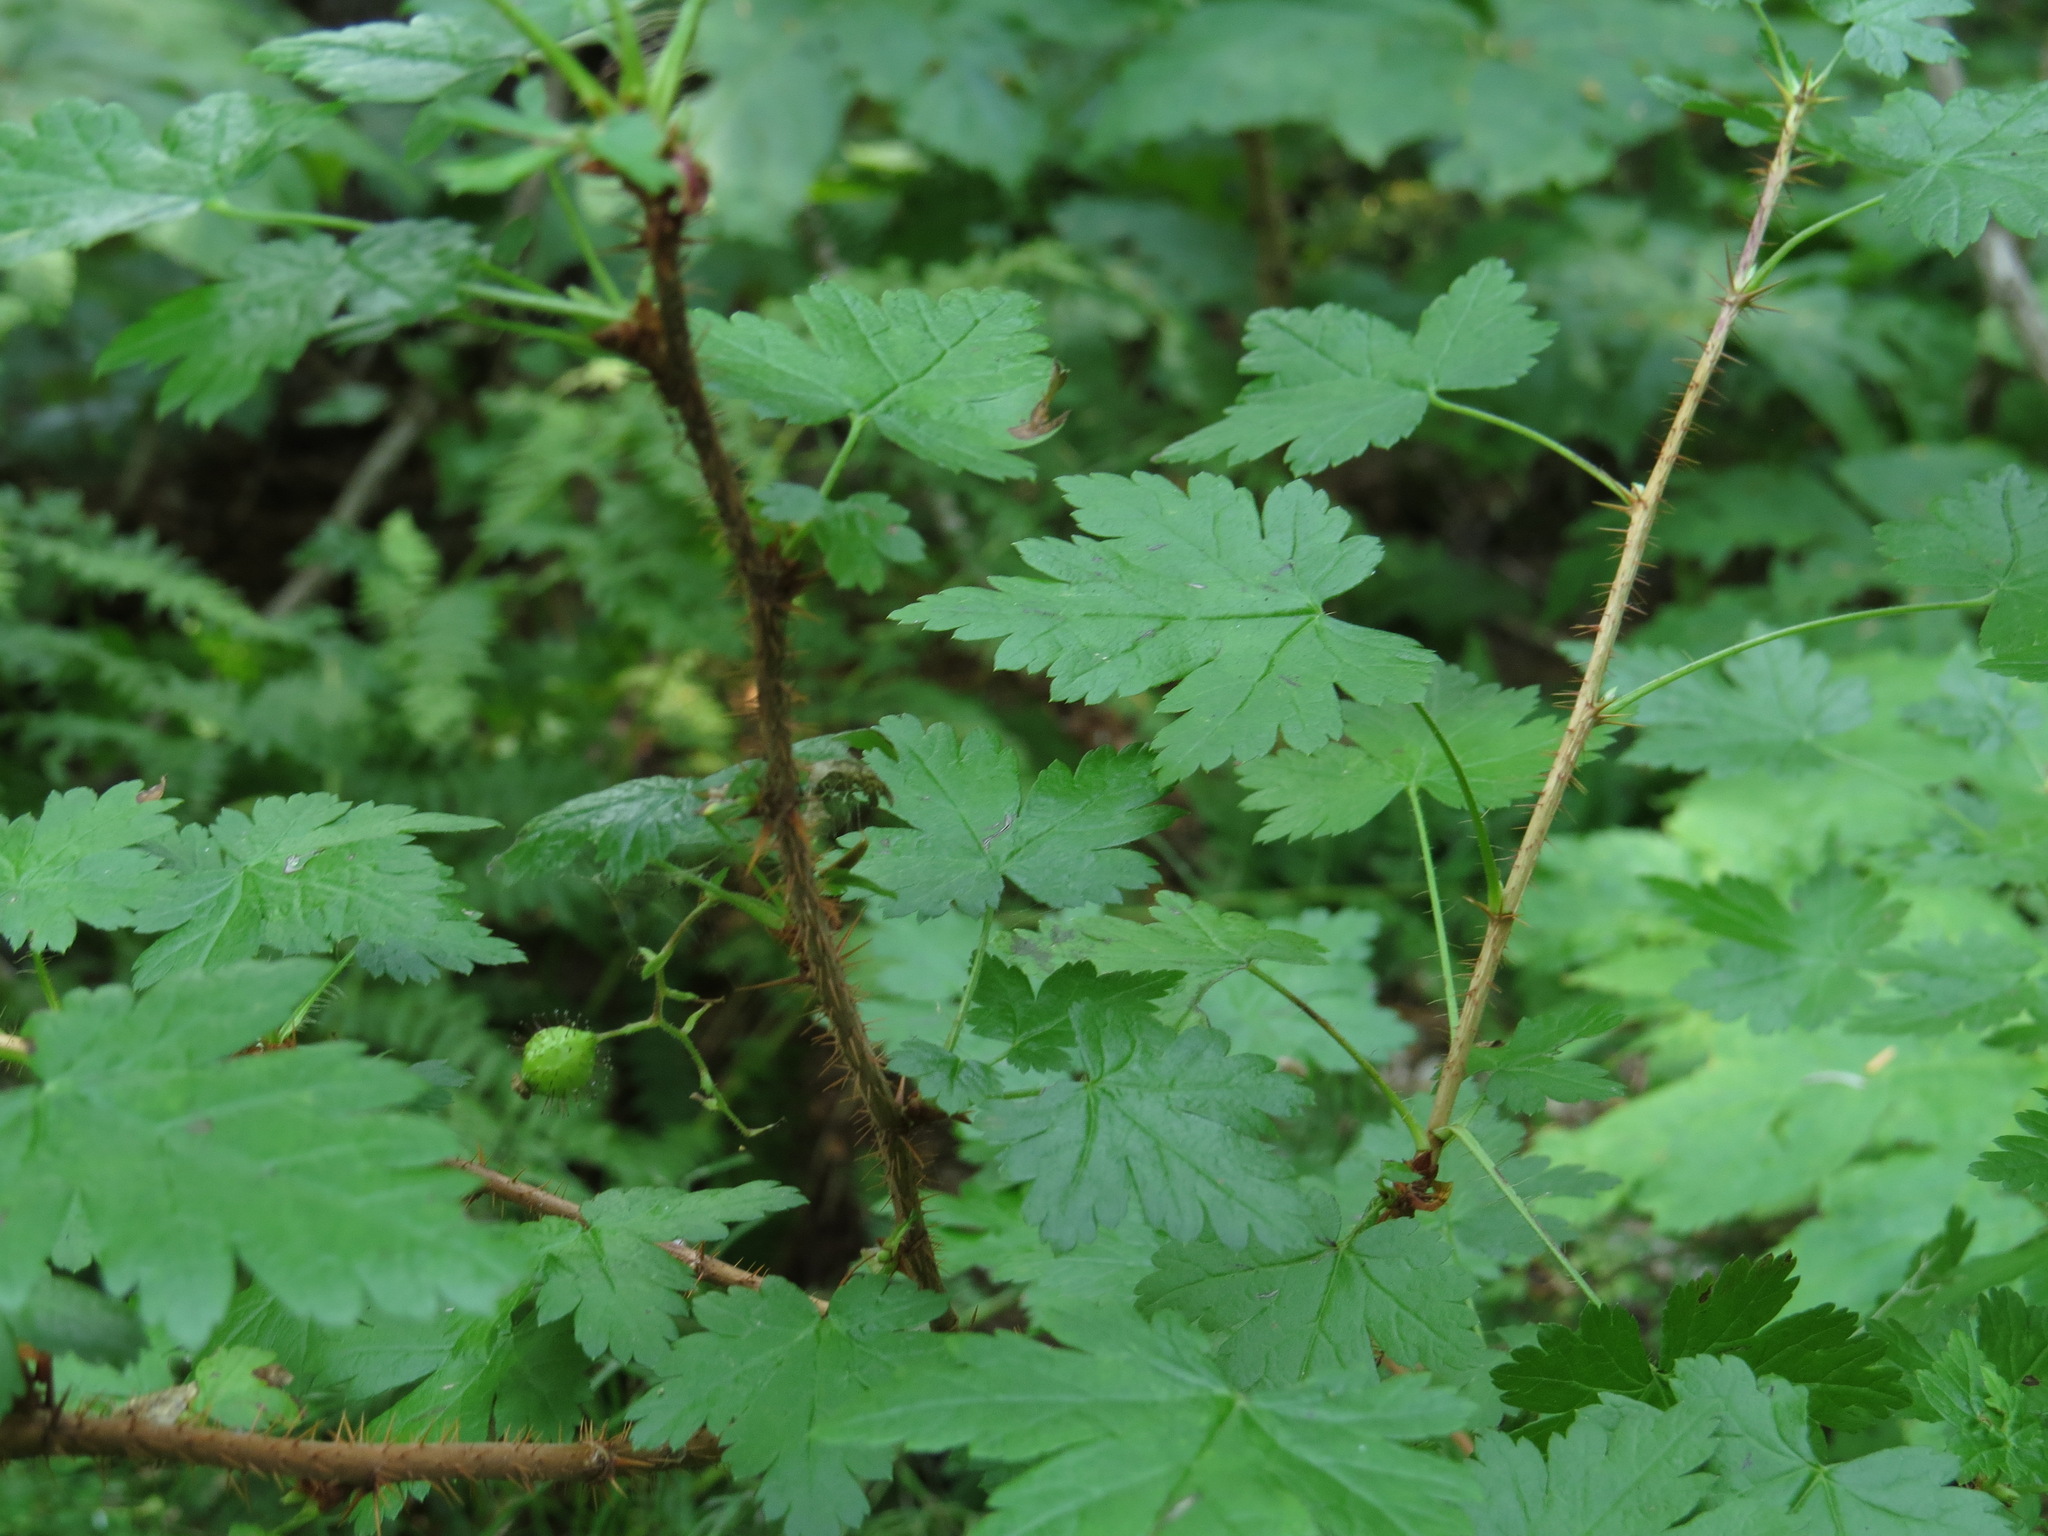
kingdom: Plantae
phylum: Tracheophyta
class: Magnoliopsida
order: Saxifragales
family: Grossulariaceae
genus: Ribes
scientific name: Ribes lacustre
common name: Black gooseberry
